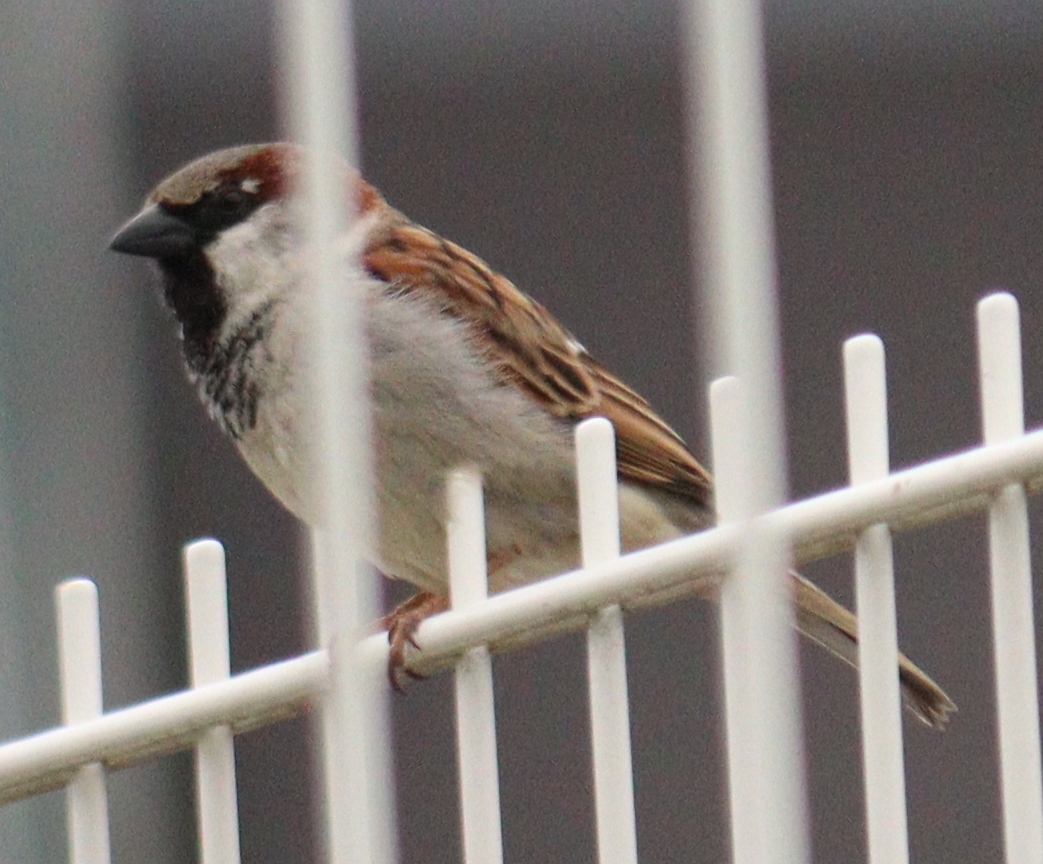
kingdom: Animalia
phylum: Chordata
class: Aves
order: Passeriformes
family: Passeridae
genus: Passer
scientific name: Passer domesticus
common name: House sparrow
